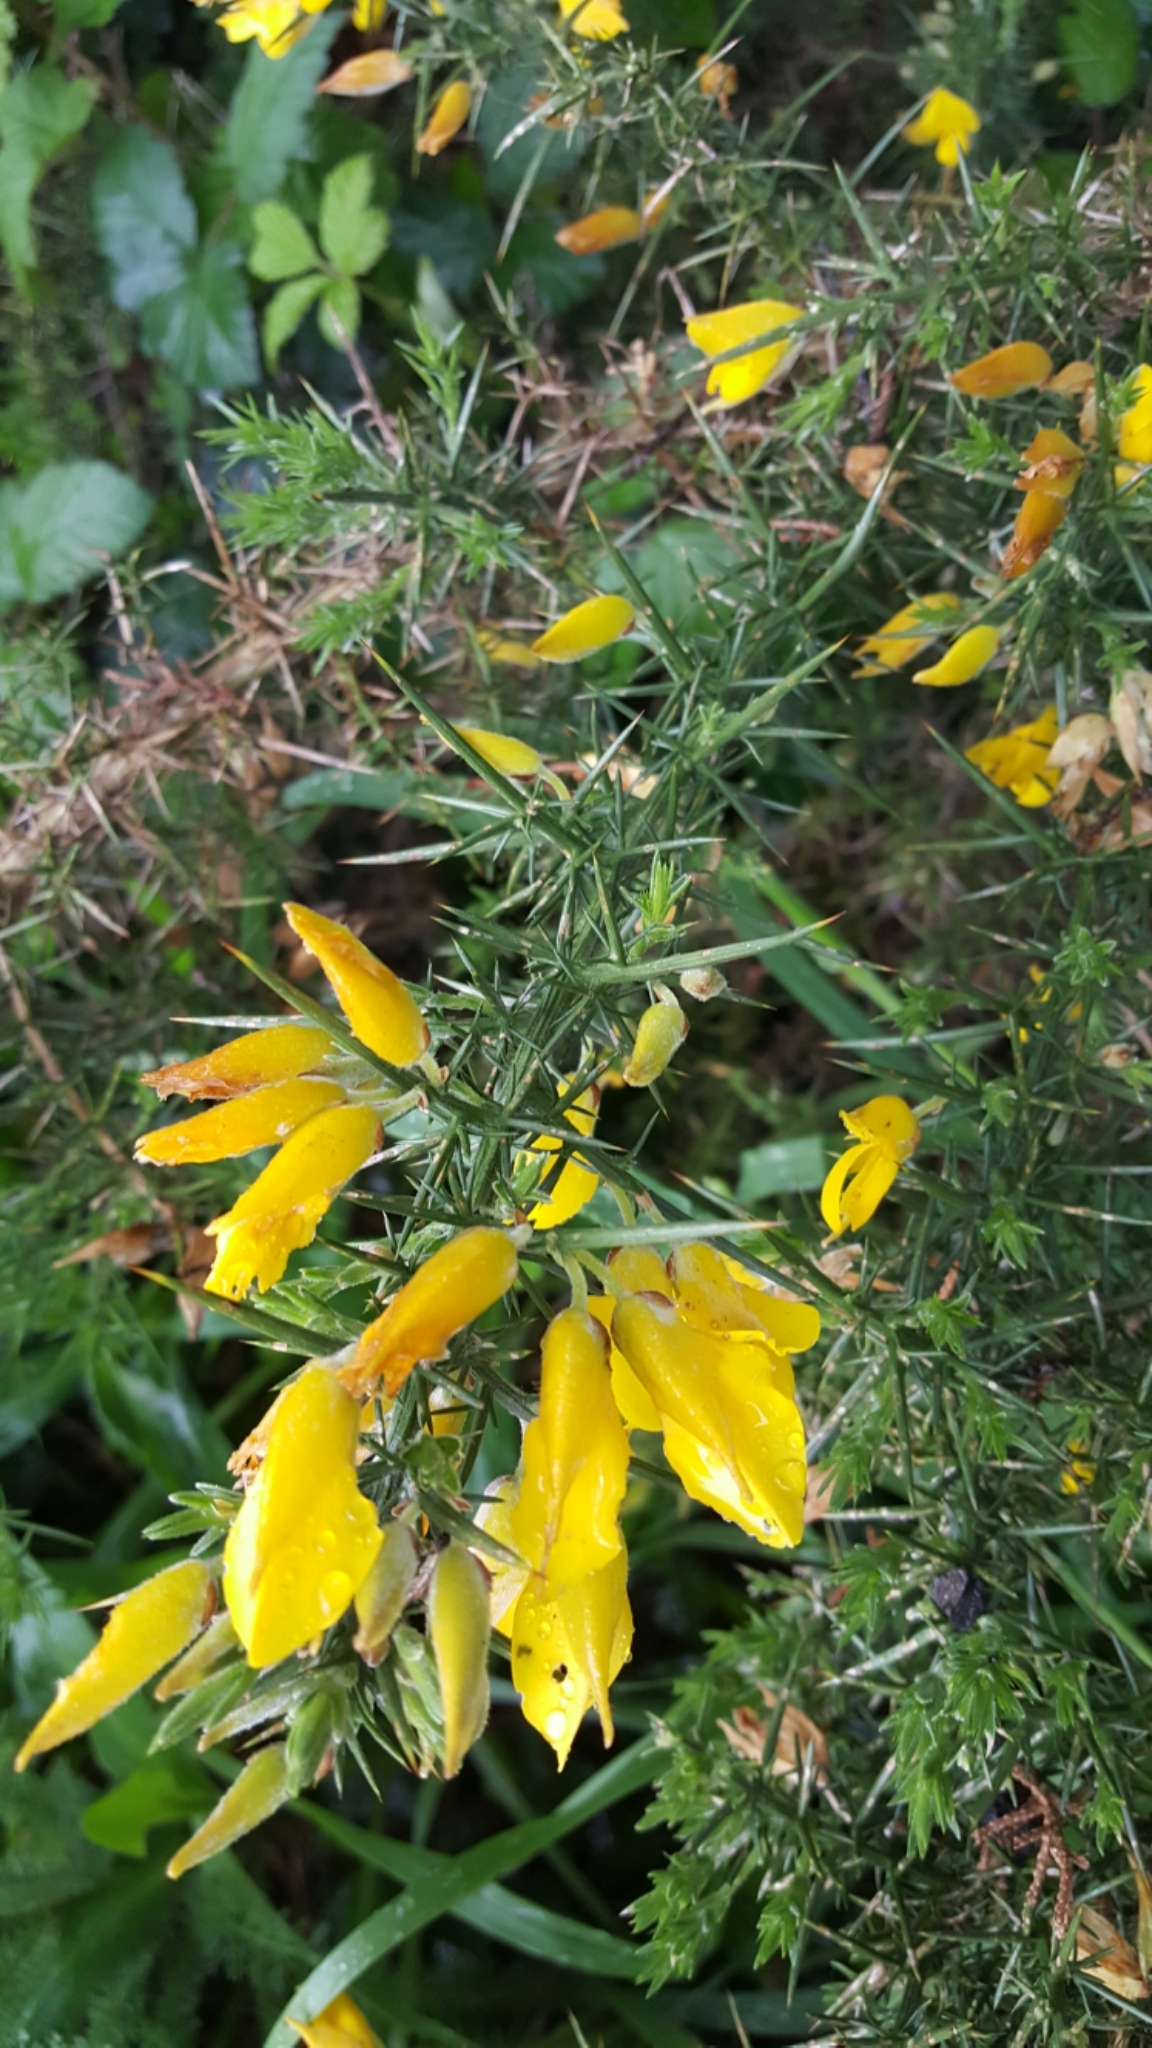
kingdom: Plantae
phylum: Tracheophyta
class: Magnoliopsida
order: Fabales
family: Fabaceae
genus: Ulex
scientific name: Ulex europaeus
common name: Common gorse
